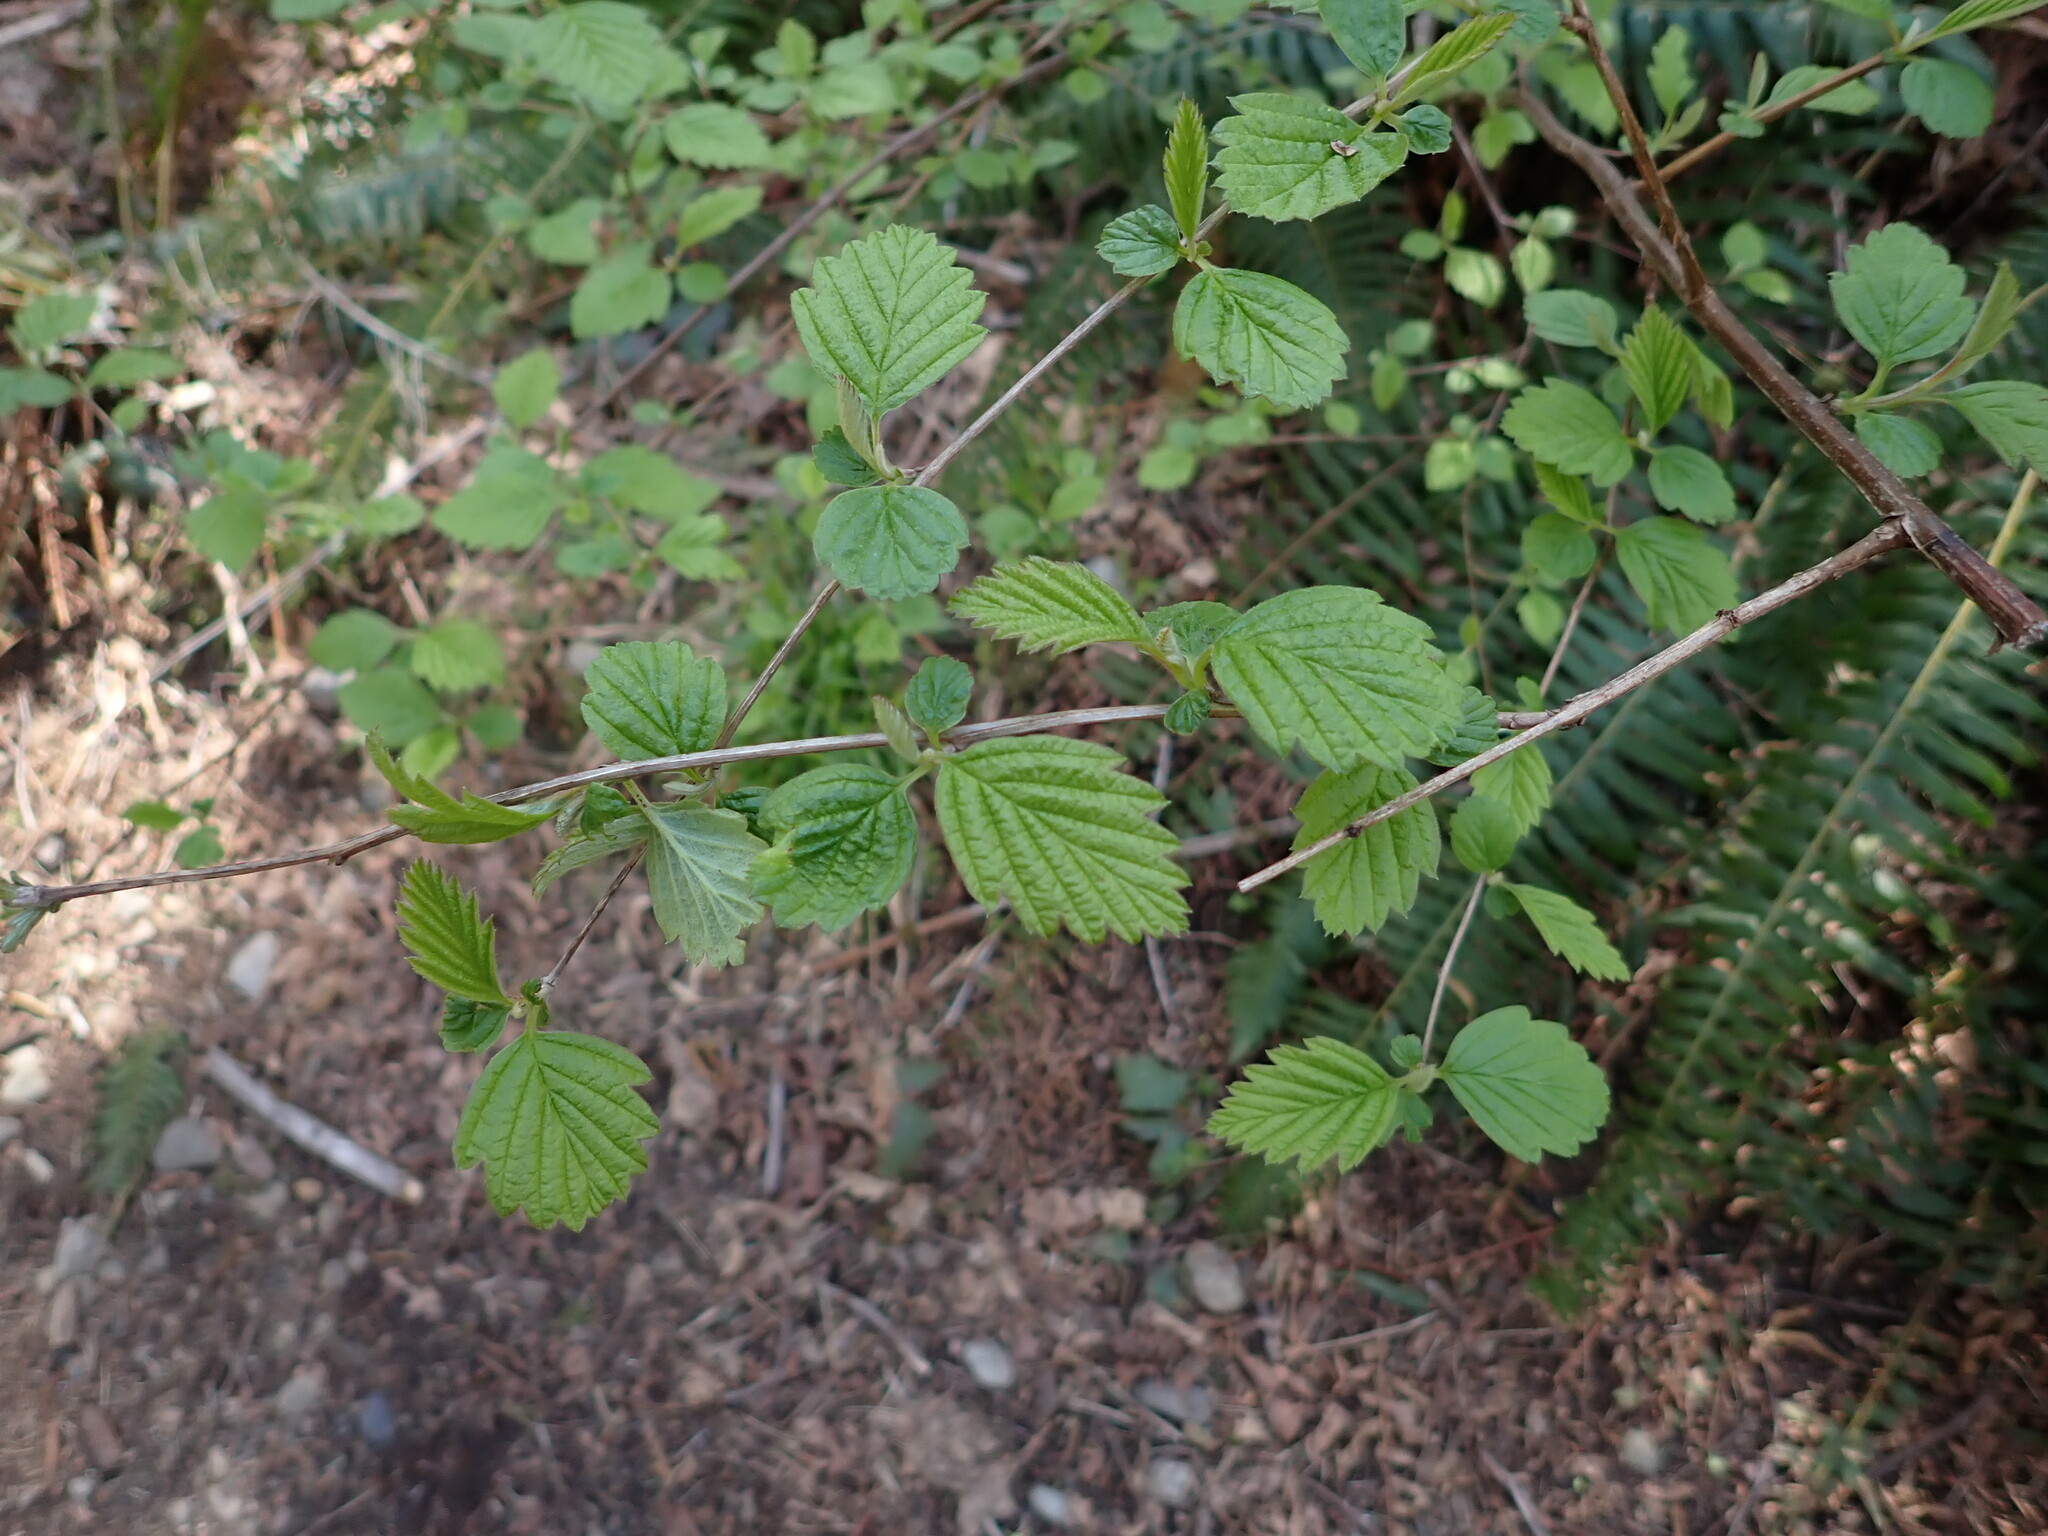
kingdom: Plantae
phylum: Tracheophyta
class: Magnoliopsida
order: Rosales
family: Rosaceae
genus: Holodiscus
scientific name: Holodiscus discolor
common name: Oceanspray
